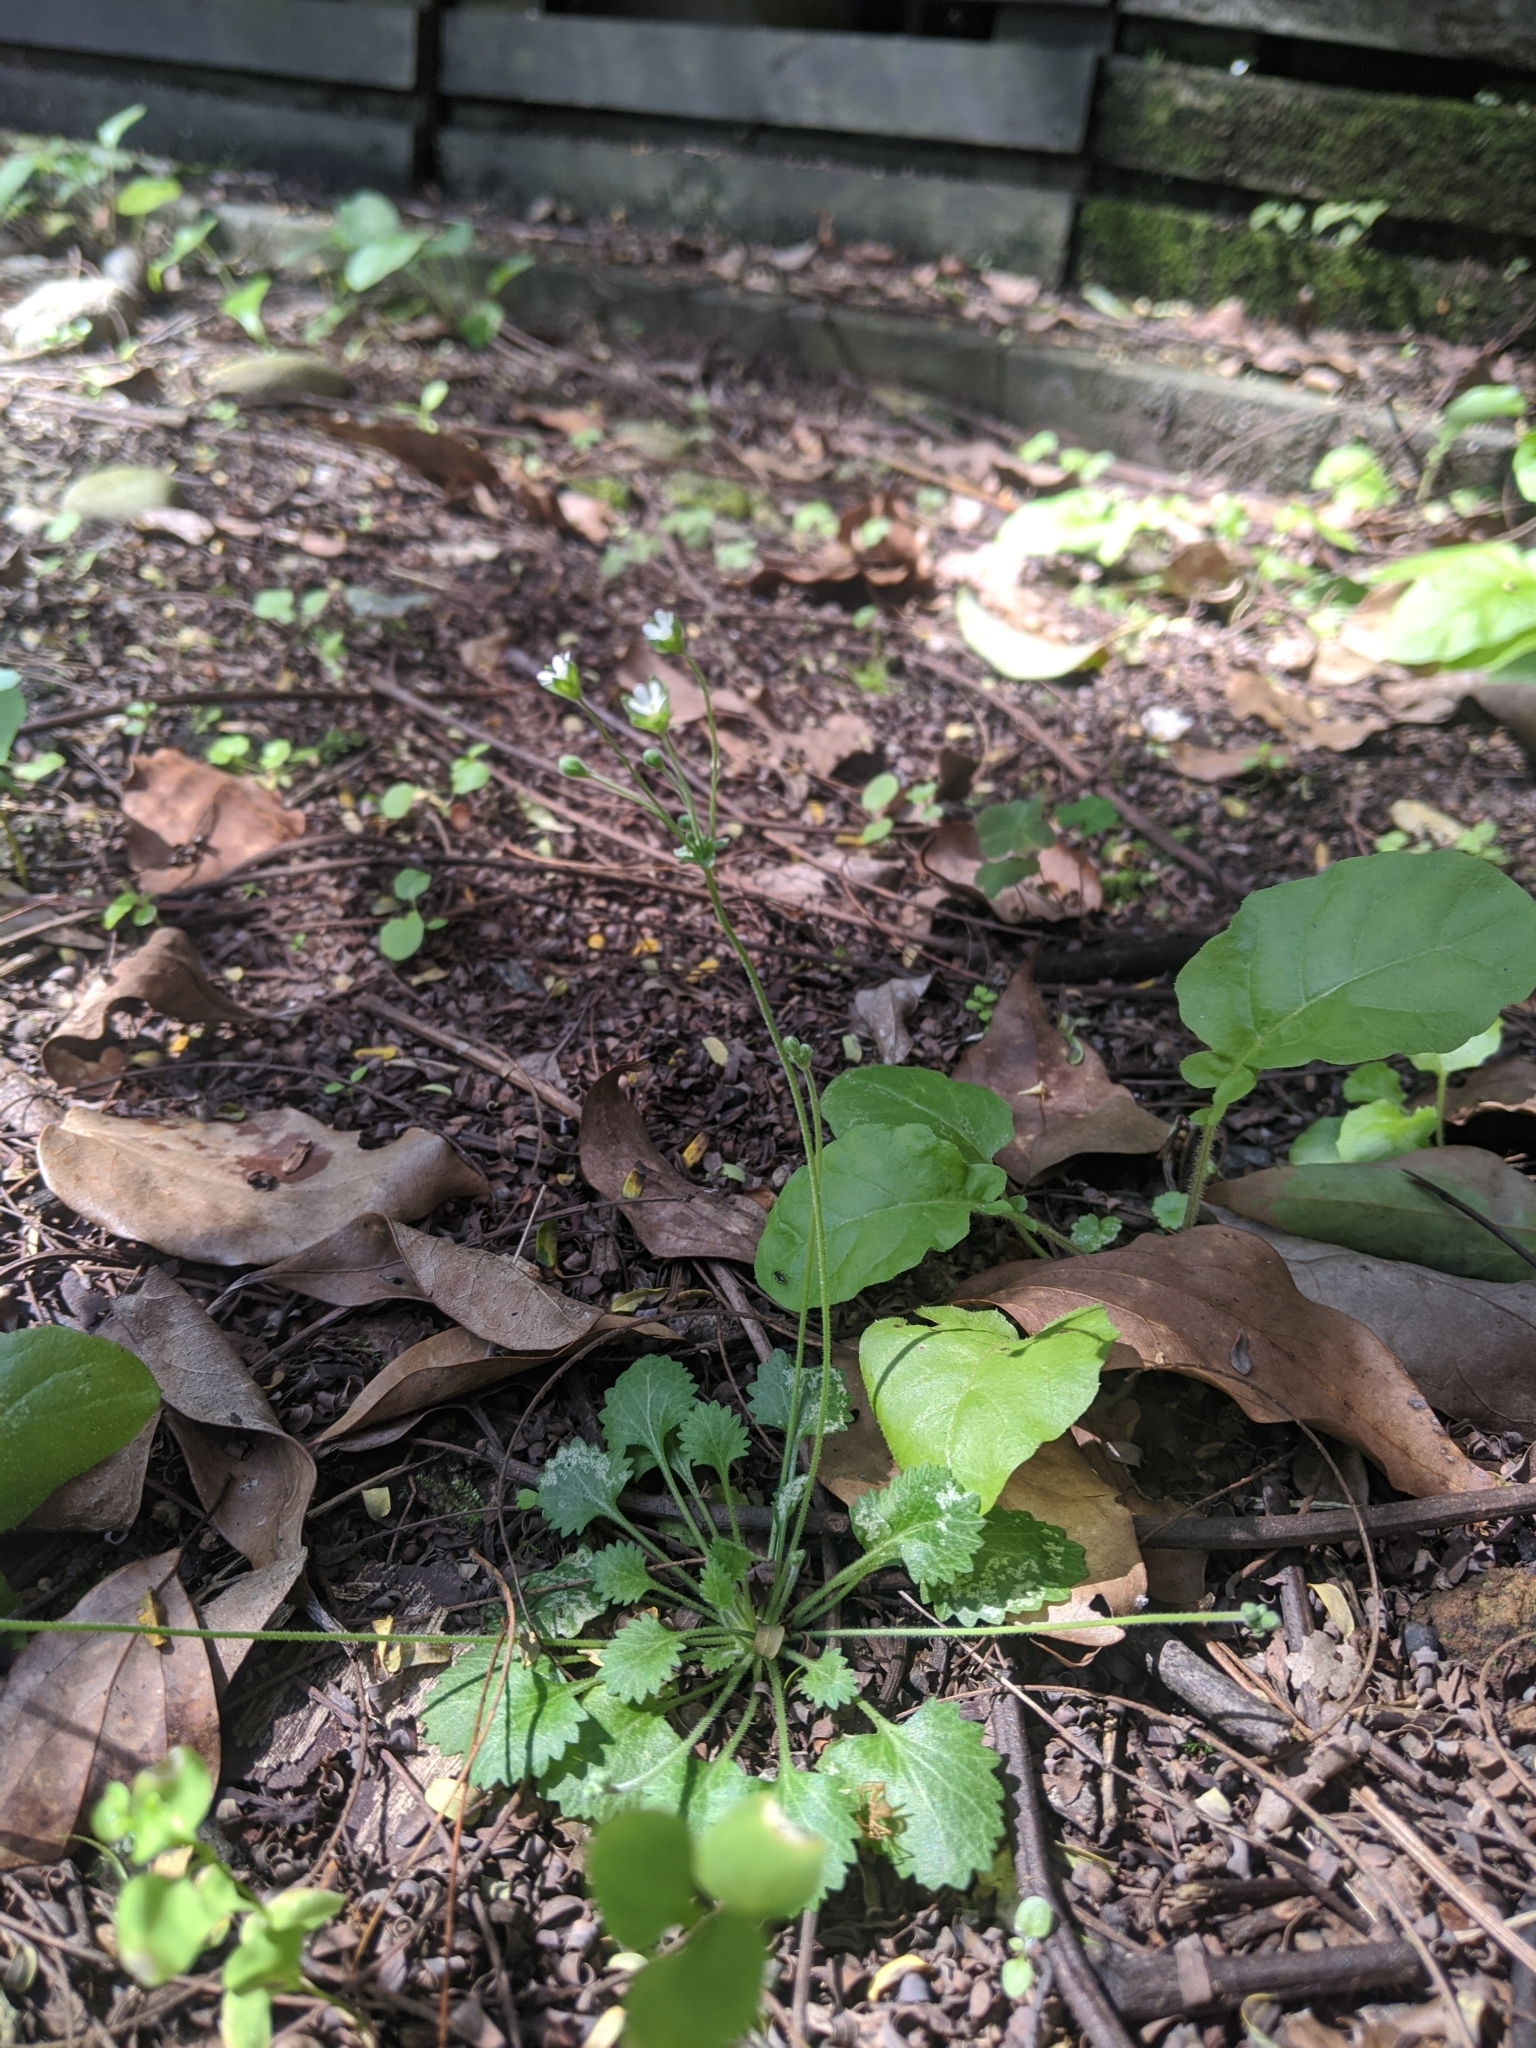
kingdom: Plantae
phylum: Tracheophyta
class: Magnoliopsida
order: Ericales
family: Primulaceae
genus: Androsace
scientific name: Androsace umbellata
